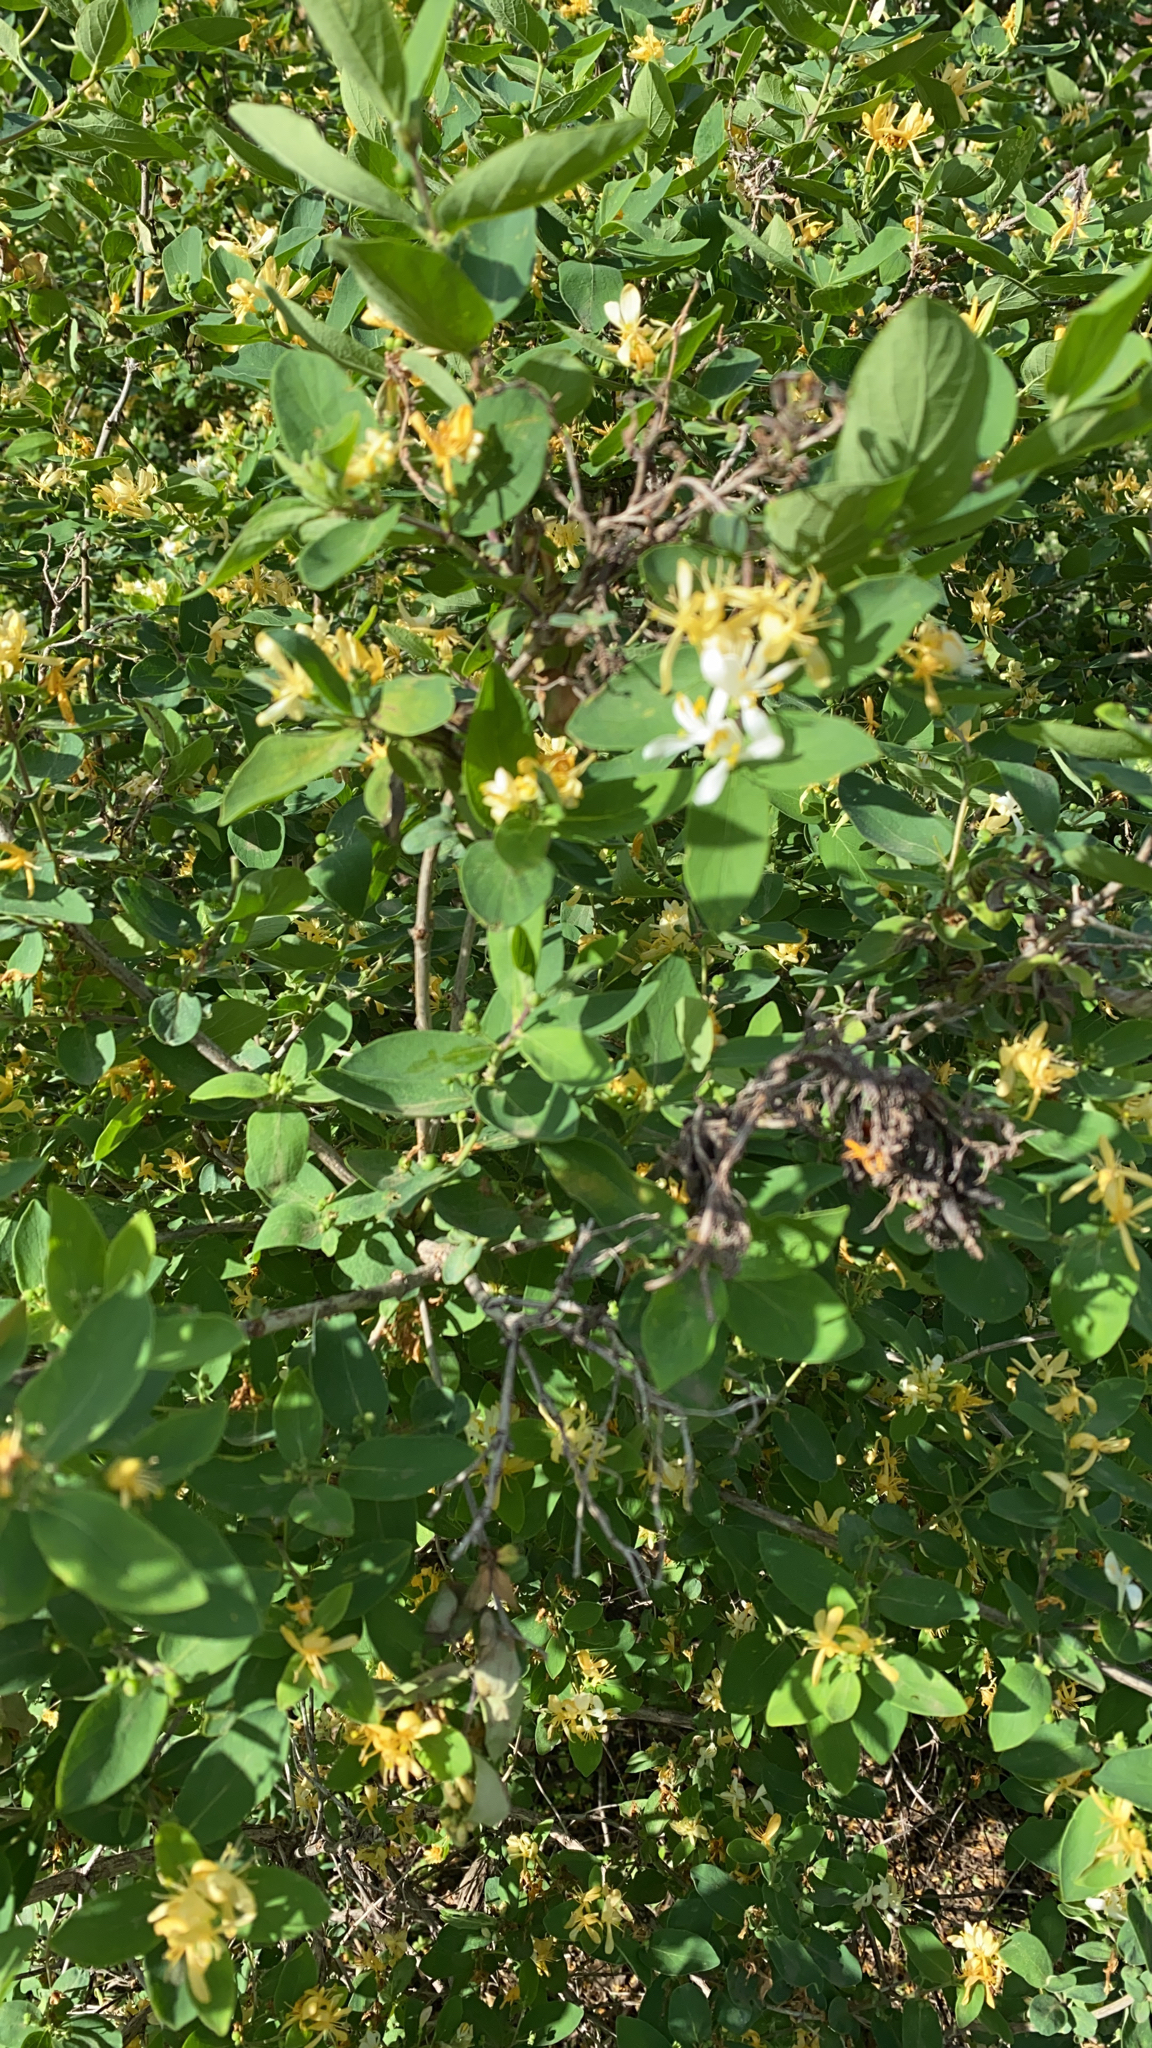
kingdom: Plantae
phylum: Tracheophyta
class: Magnoliopsida
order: Dipsacales
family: Caprifoliaceae
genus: Lonicera
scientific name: Lonicera morrowii
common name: Morrow's honeysuckle
